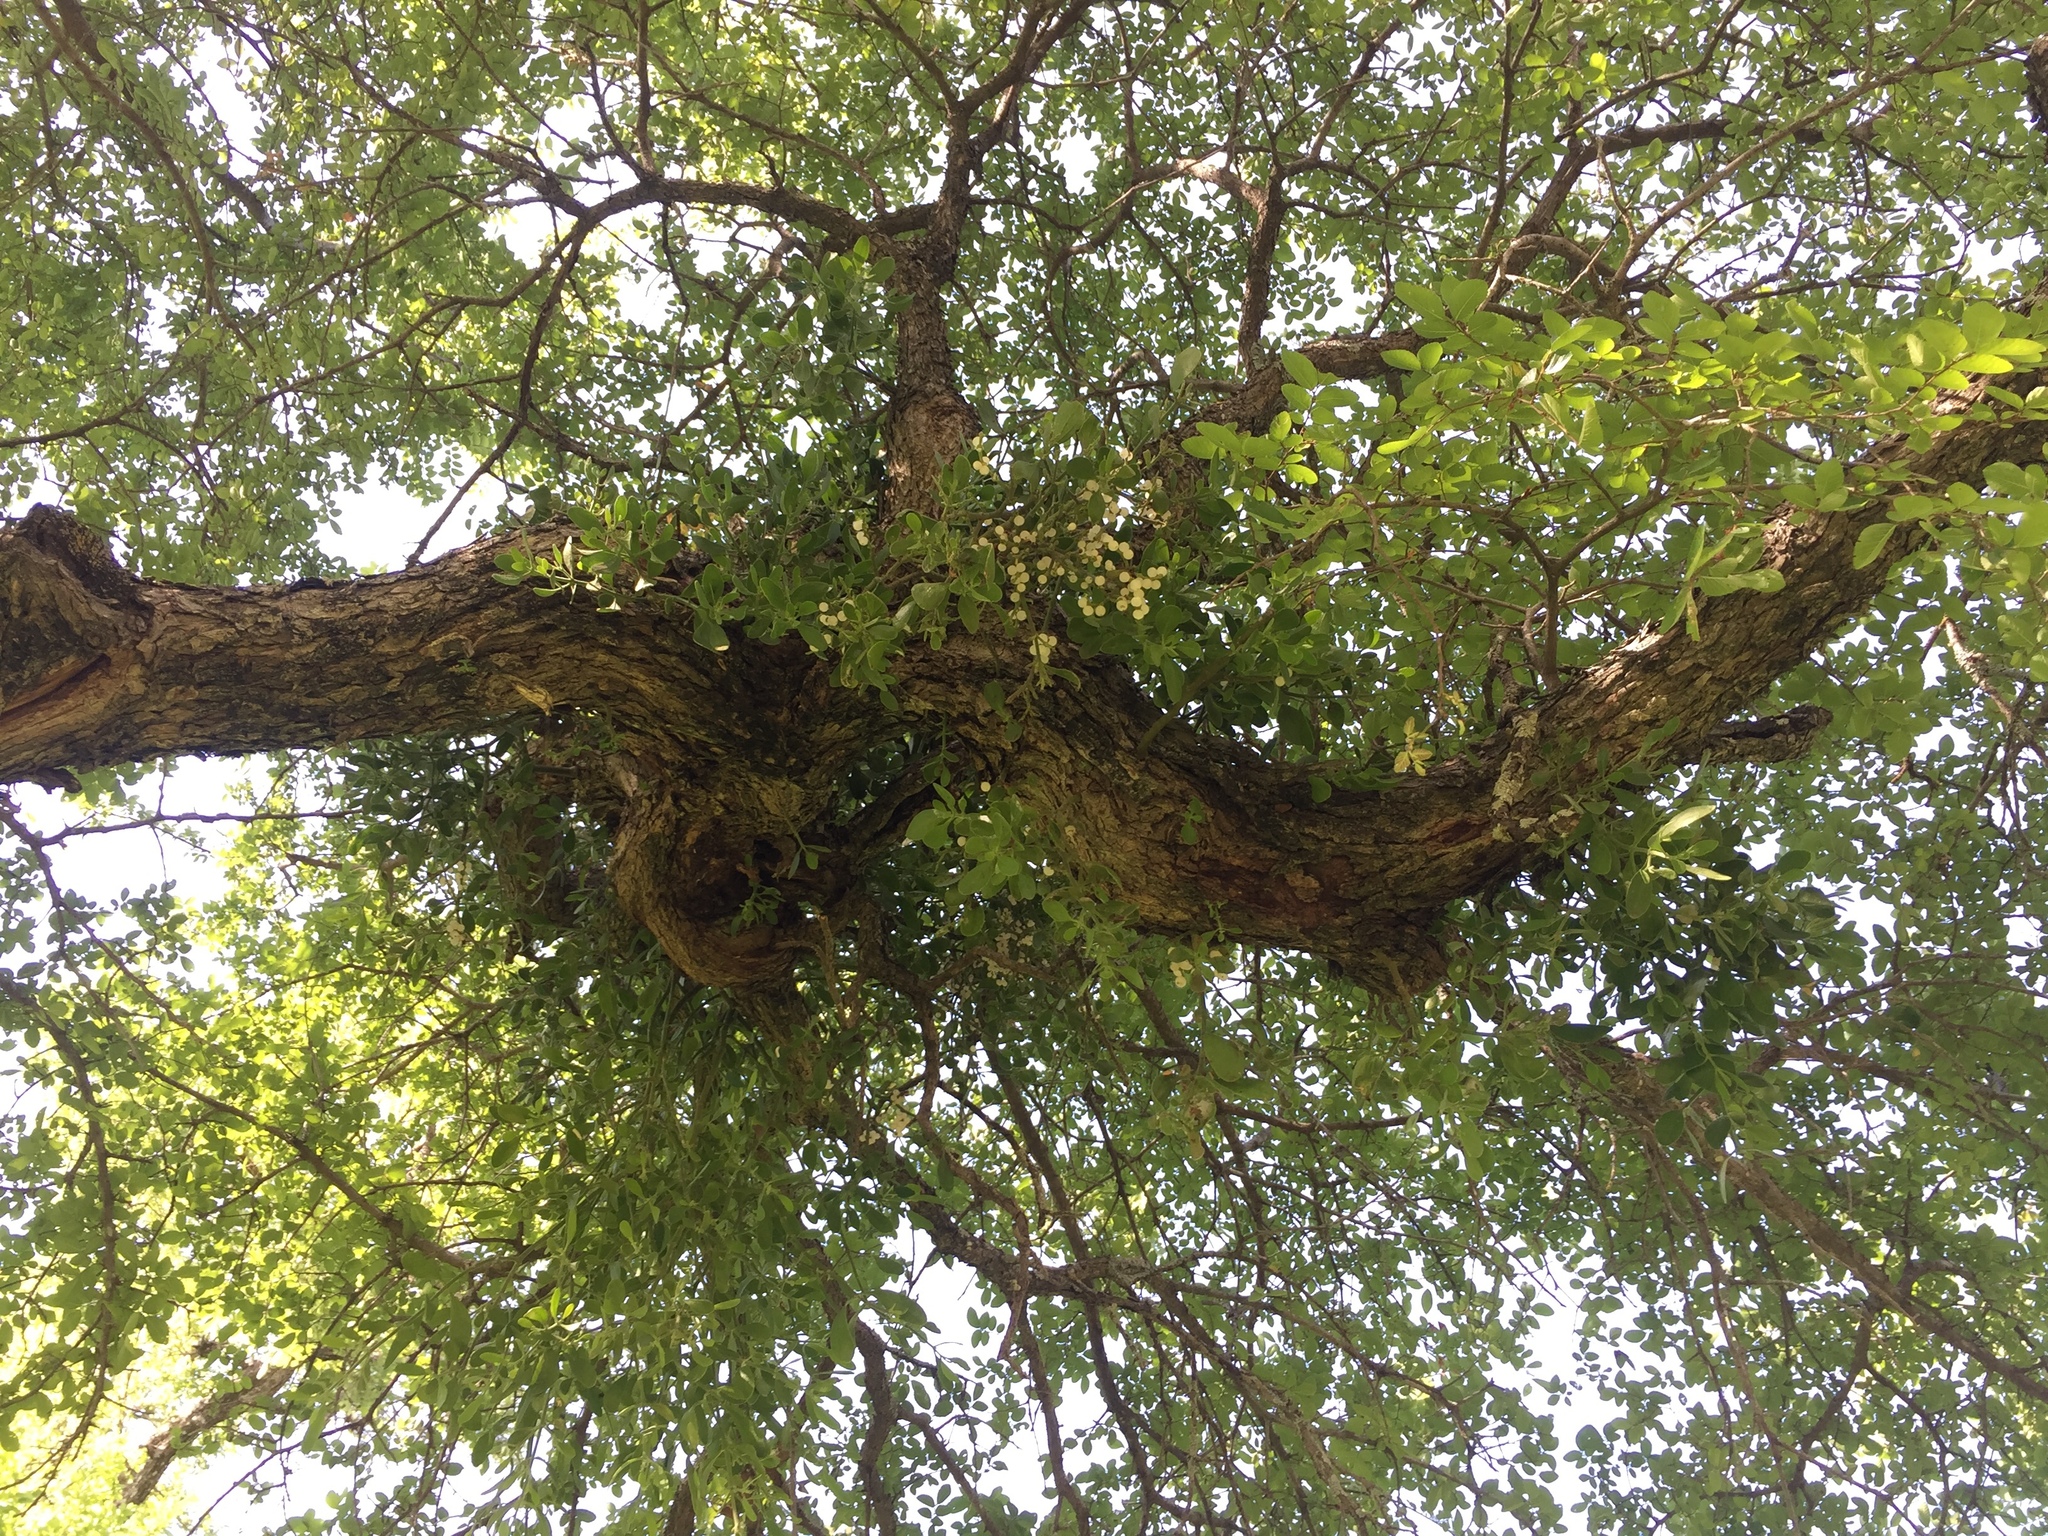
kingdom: Plantae
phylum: Tracheophyta
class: Magnoliopsida
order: Santalales
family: Viscaceae
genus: Phoradendron
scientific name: Phoradendron leucarpum
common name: Pacific mistletoe
